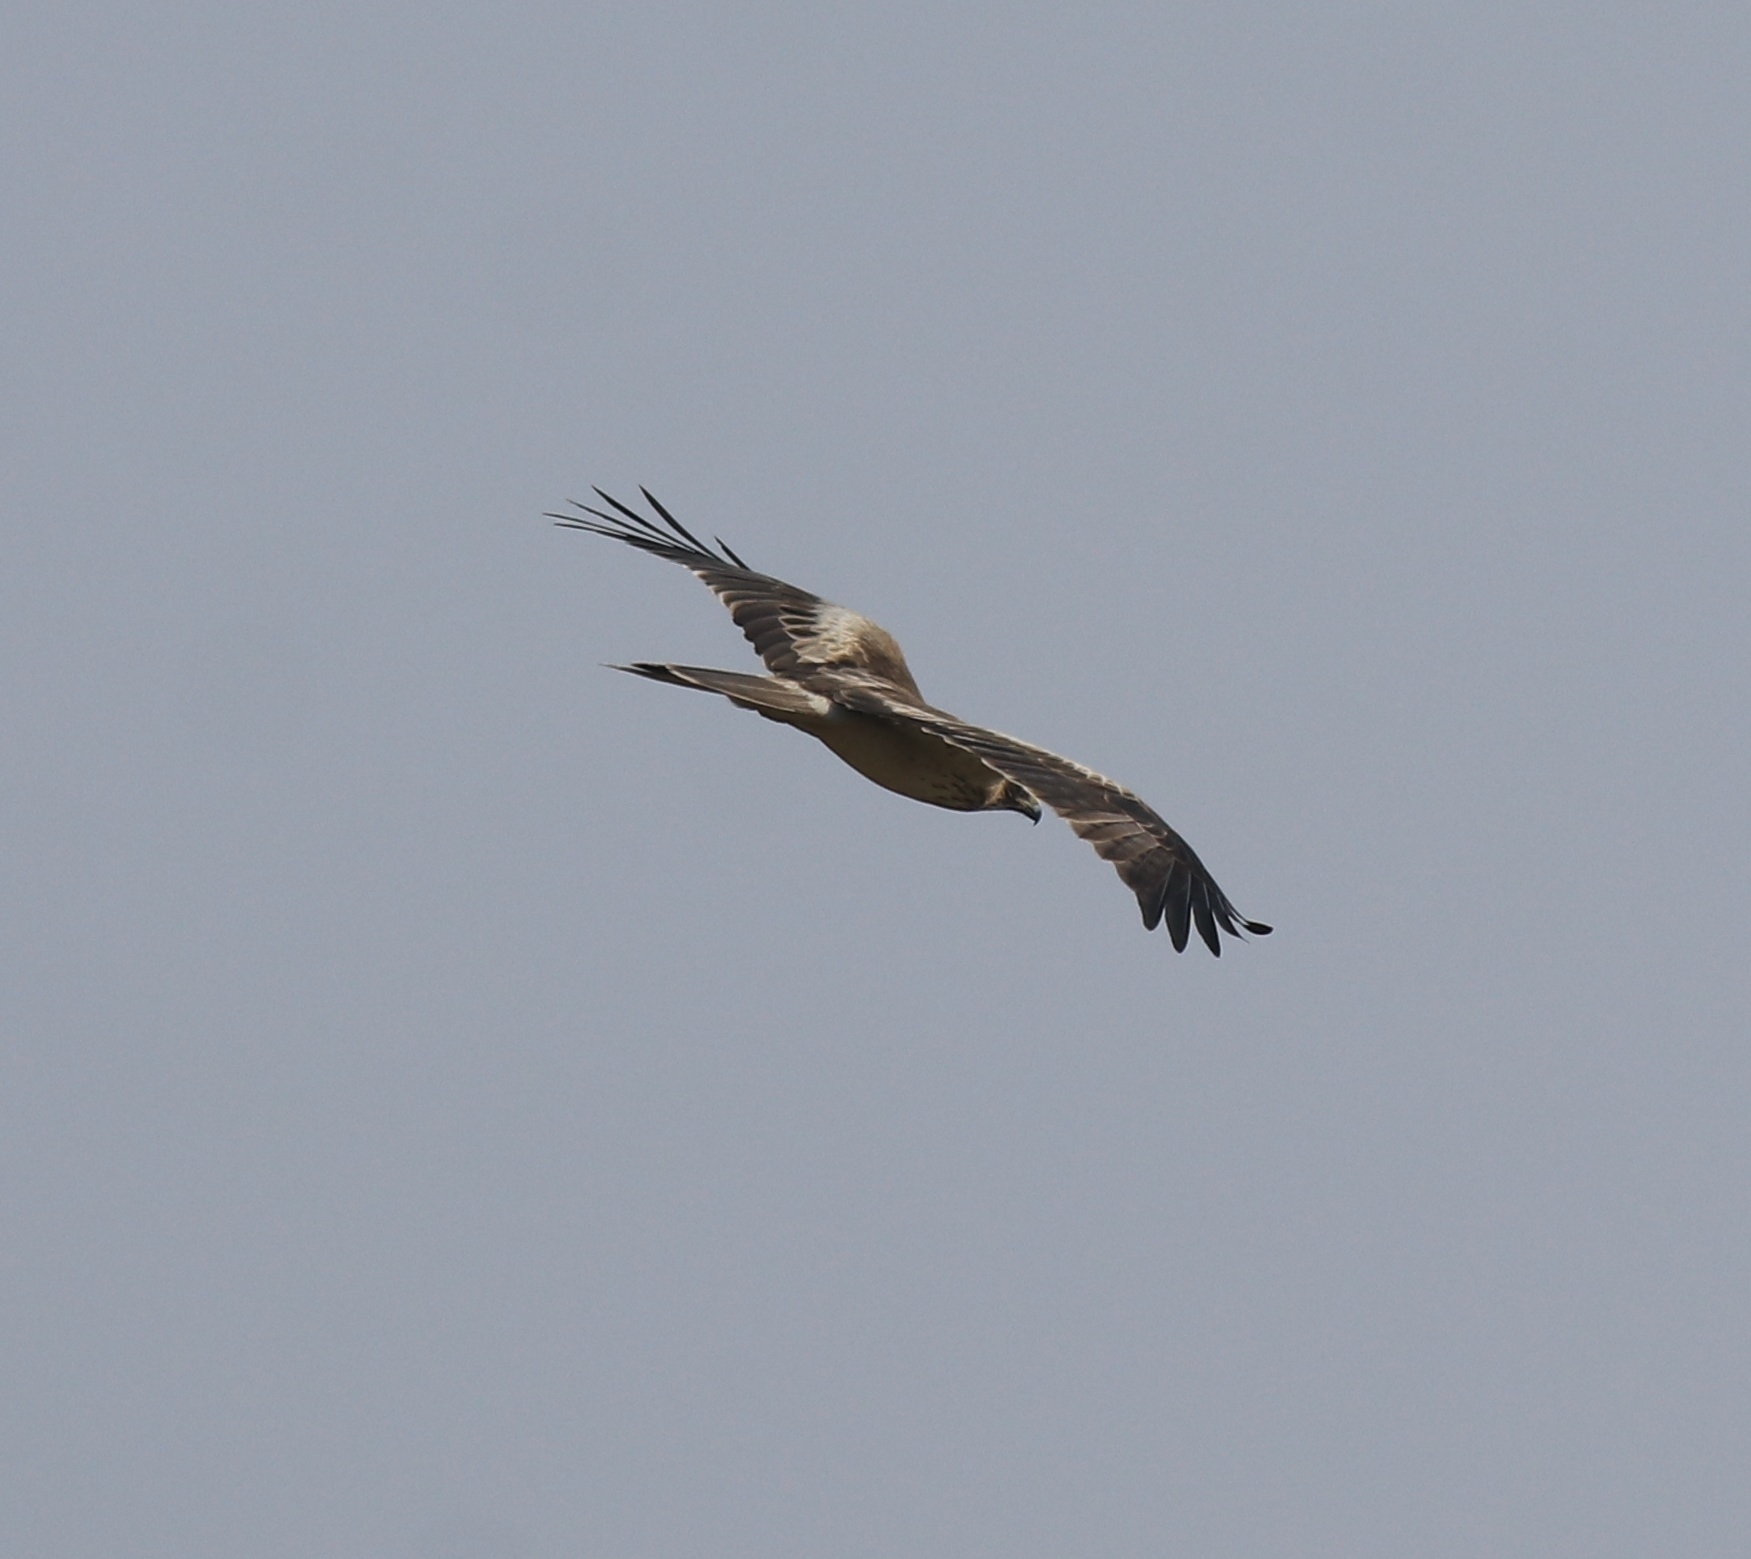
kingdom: Animalia
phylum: Chordata
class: Aves
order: Accipitriformes
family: Accipitridae
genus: Hieraaetus
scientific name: Hieraaetus pennatus
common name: Booted eagle
